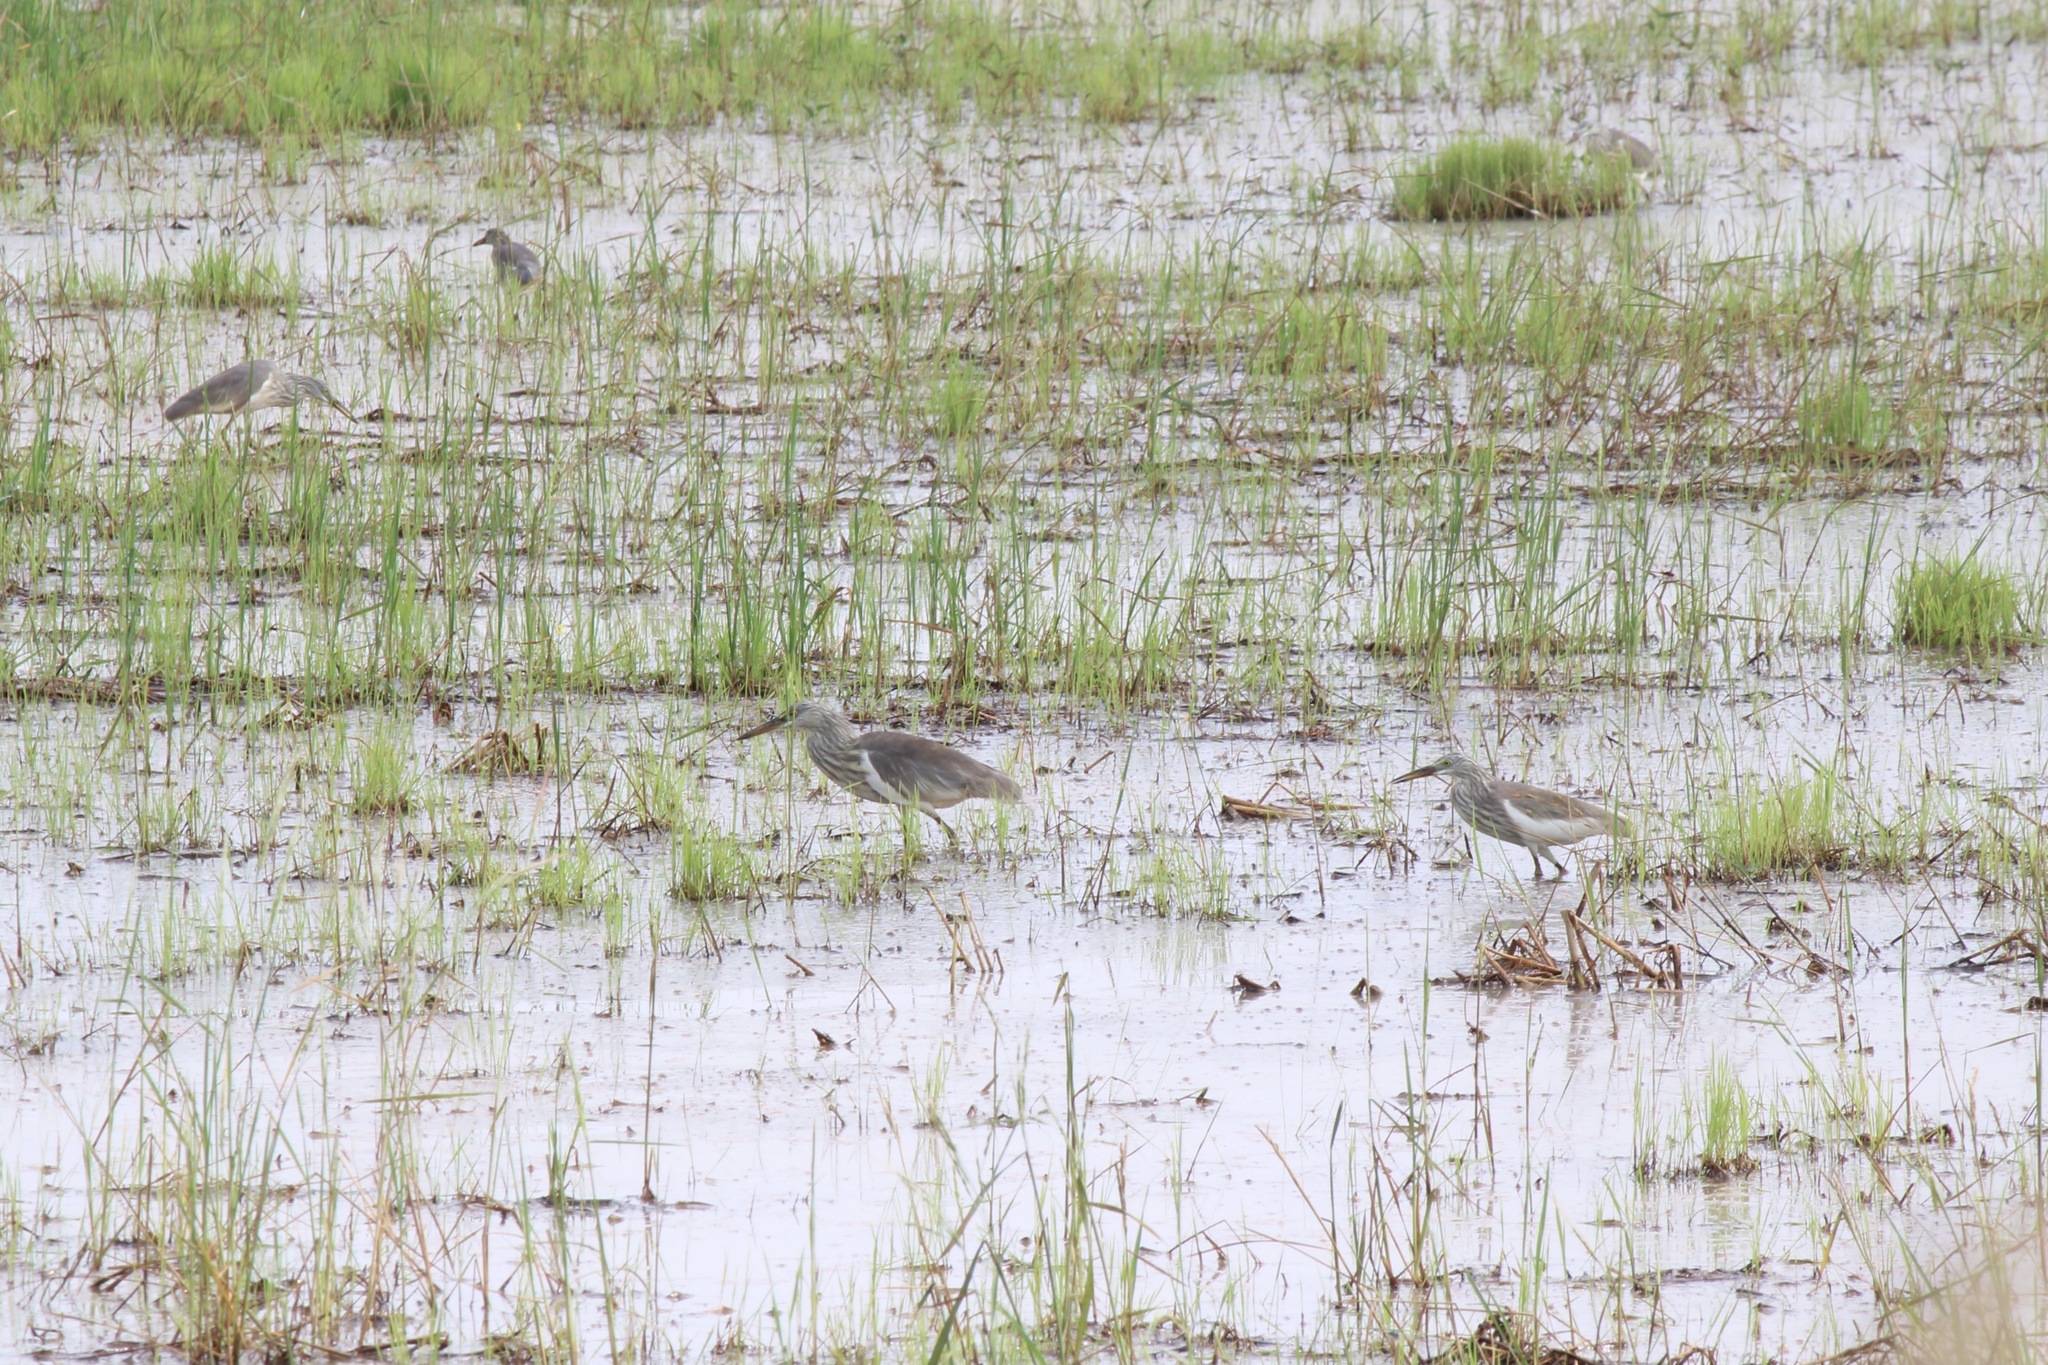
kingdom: Animalia
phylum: Chordata
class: Aves
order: Pelecaniformes
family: Ardeidae
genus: Ardeola
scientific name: Ardeola
